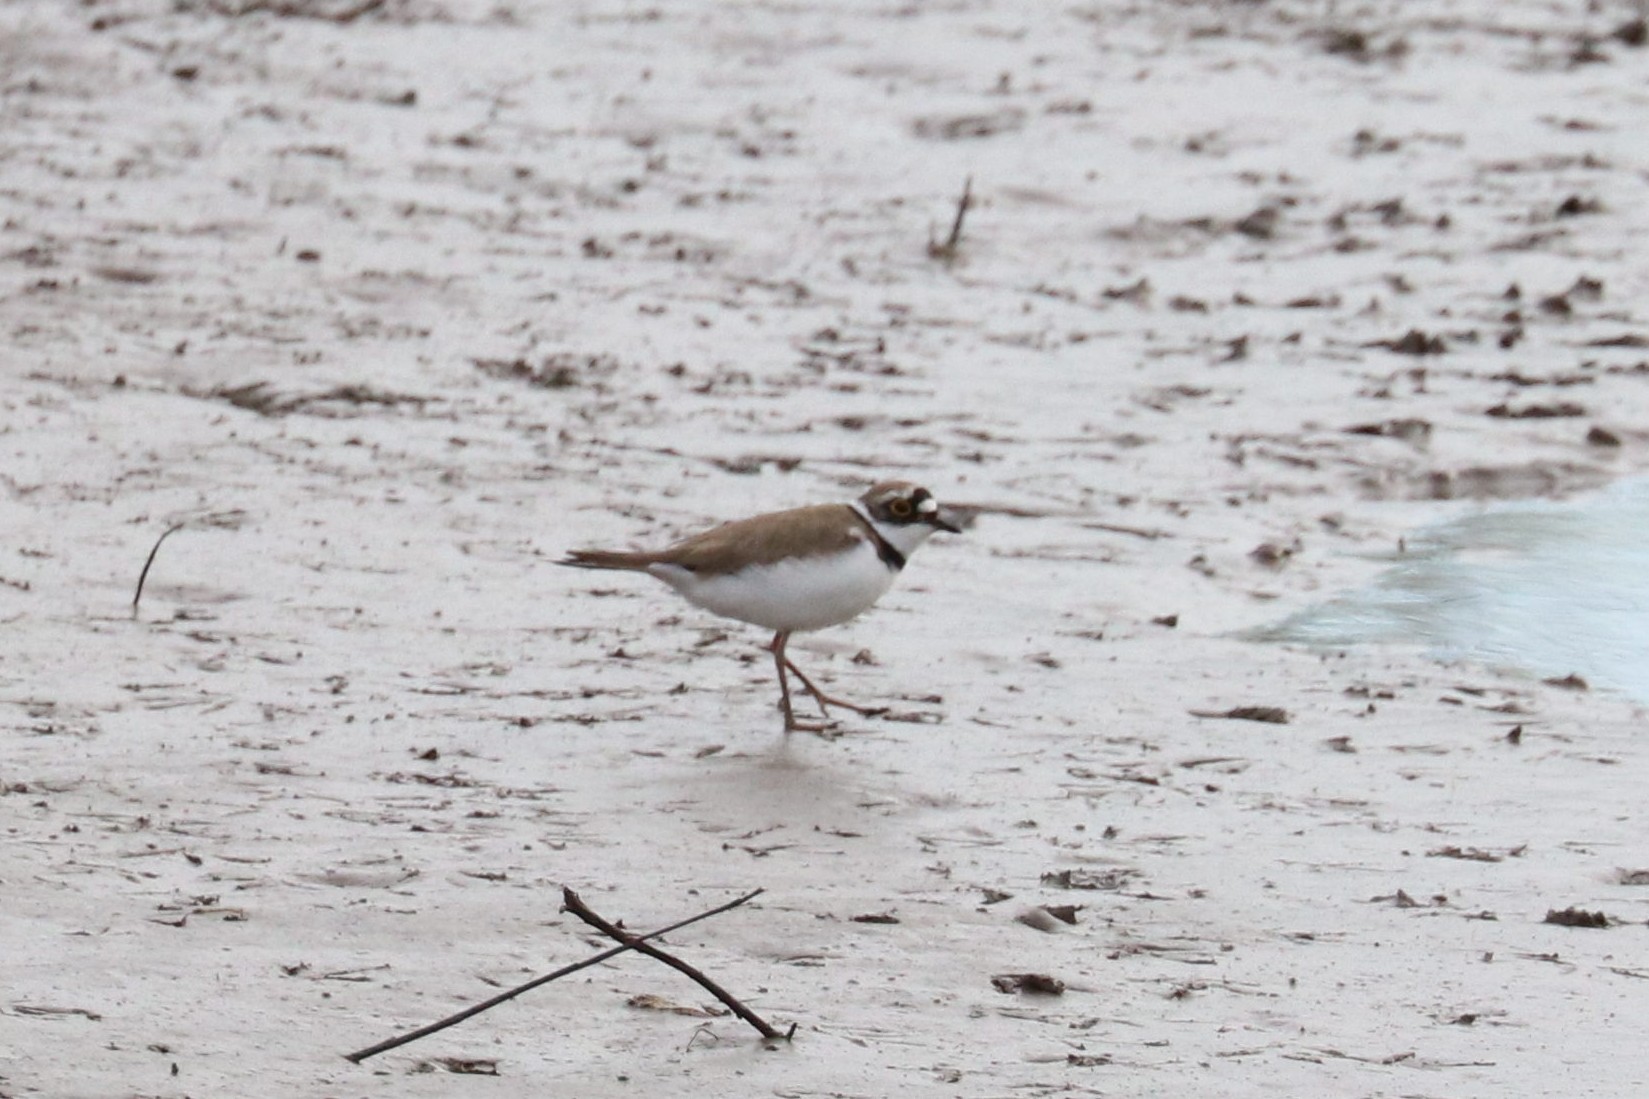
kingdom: Animalia
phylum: Chordata
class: Aves
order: Charadriiformes
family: Charadriidae
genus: Charadrius
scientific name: Charadrius dubius
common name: Little ringed plover
